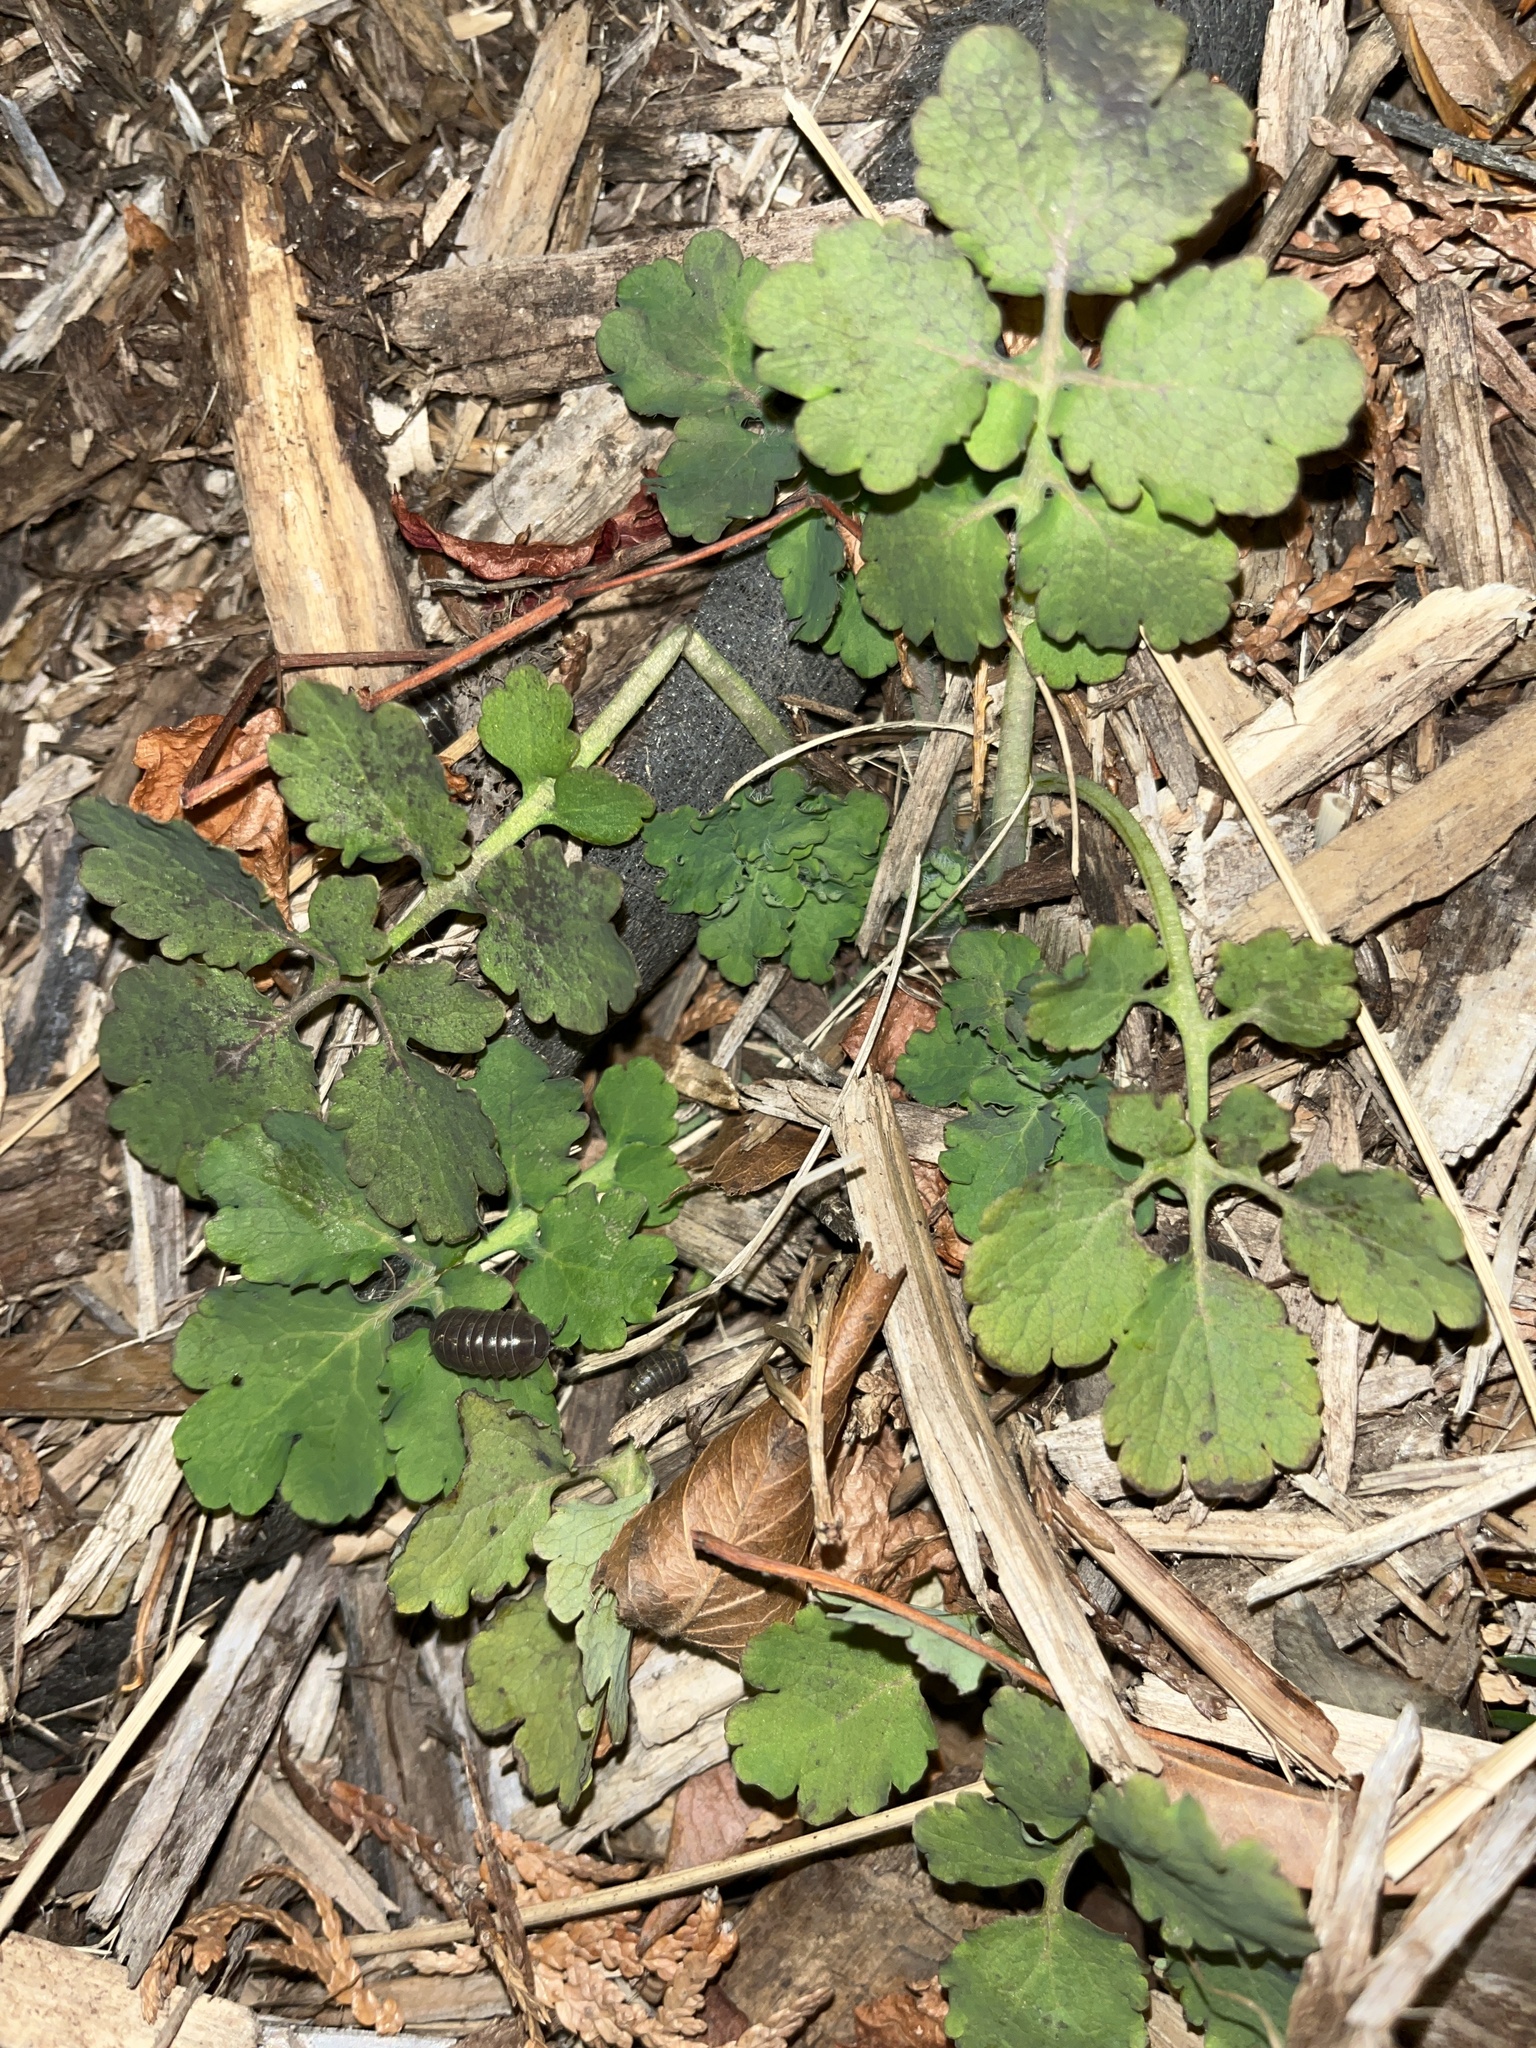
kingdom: Plantae
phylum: Tracheophyta
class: Magnoliopsida
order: Ranunculales
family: Papaveraceae
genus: Chelidonium
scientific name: Chelidonium majus
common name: Greater celandine
